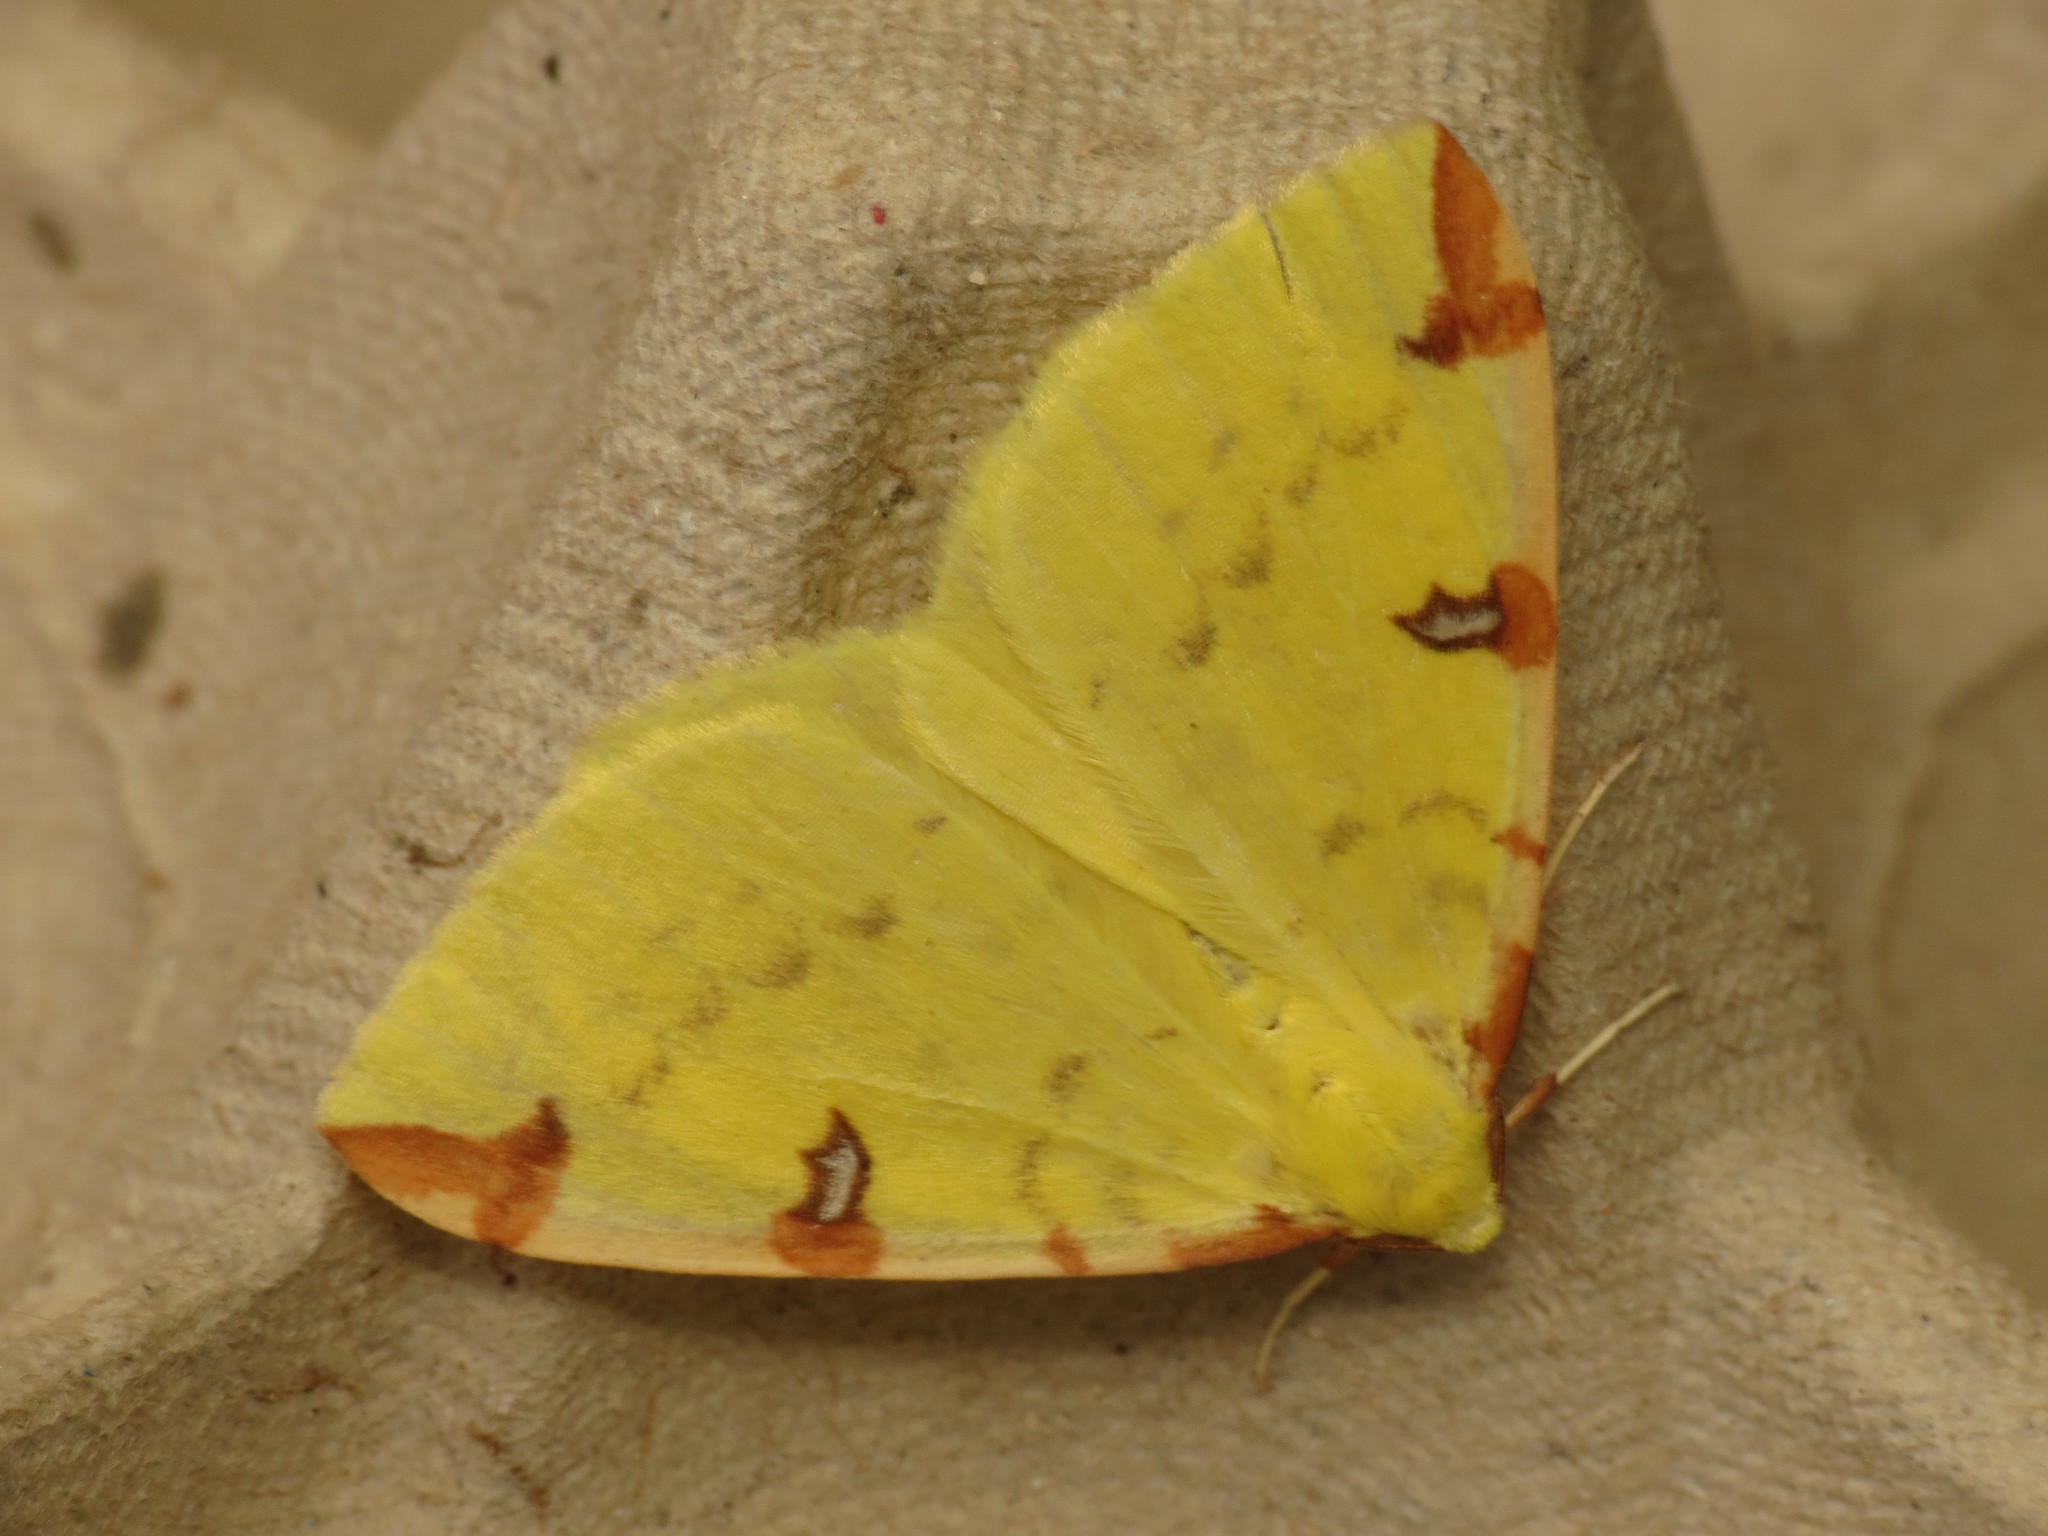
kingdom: Animalia
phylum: Arthropoda
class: Insecta
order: Lepidoptera
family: Geometridae
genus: Opisthograptis
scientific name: Opisthograptis luteolata
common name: Brimstone moth
